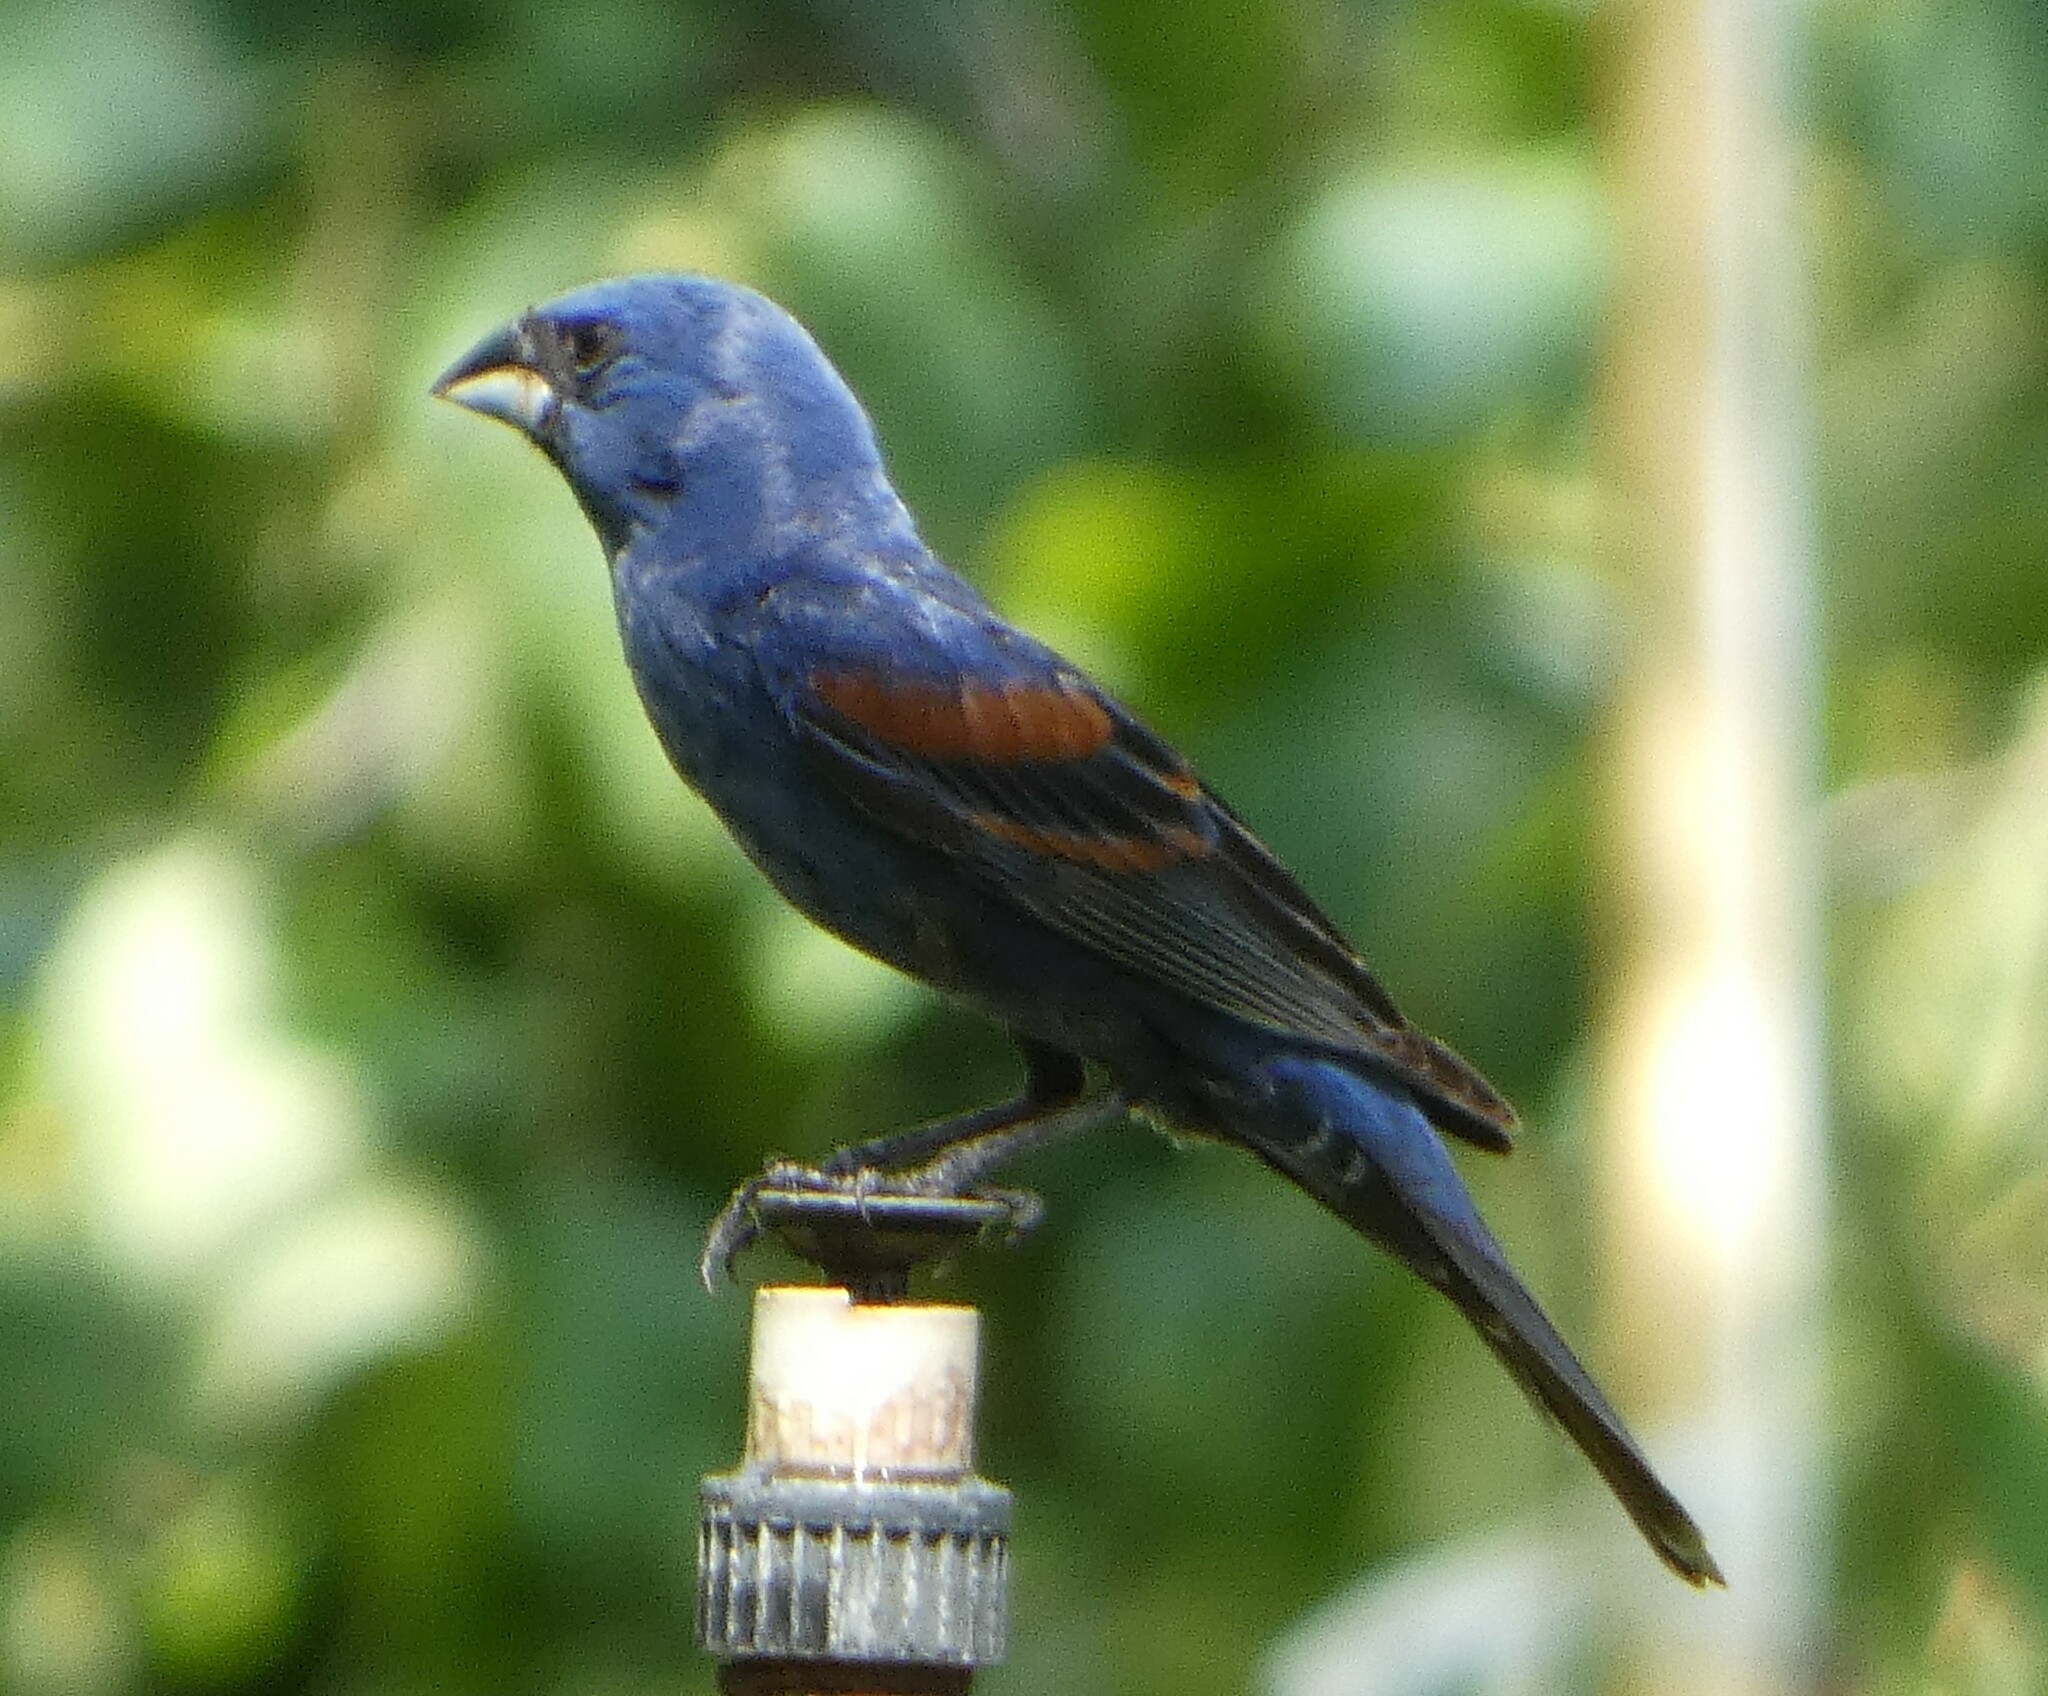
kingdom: Animalia
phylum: Chordata
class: Aves
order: Passeriformes
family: Cardinalidae
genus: Passerina
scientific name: Passerina caerulea
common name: Blue grosbeak
